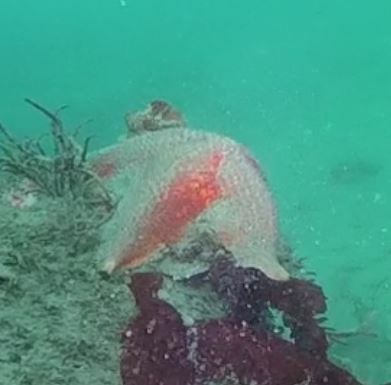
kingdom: Animalia
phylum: Echinodermata
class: Asteroidea
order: Valvatida
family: Asterinidae
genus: Patiria
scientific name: Patiria miniata
